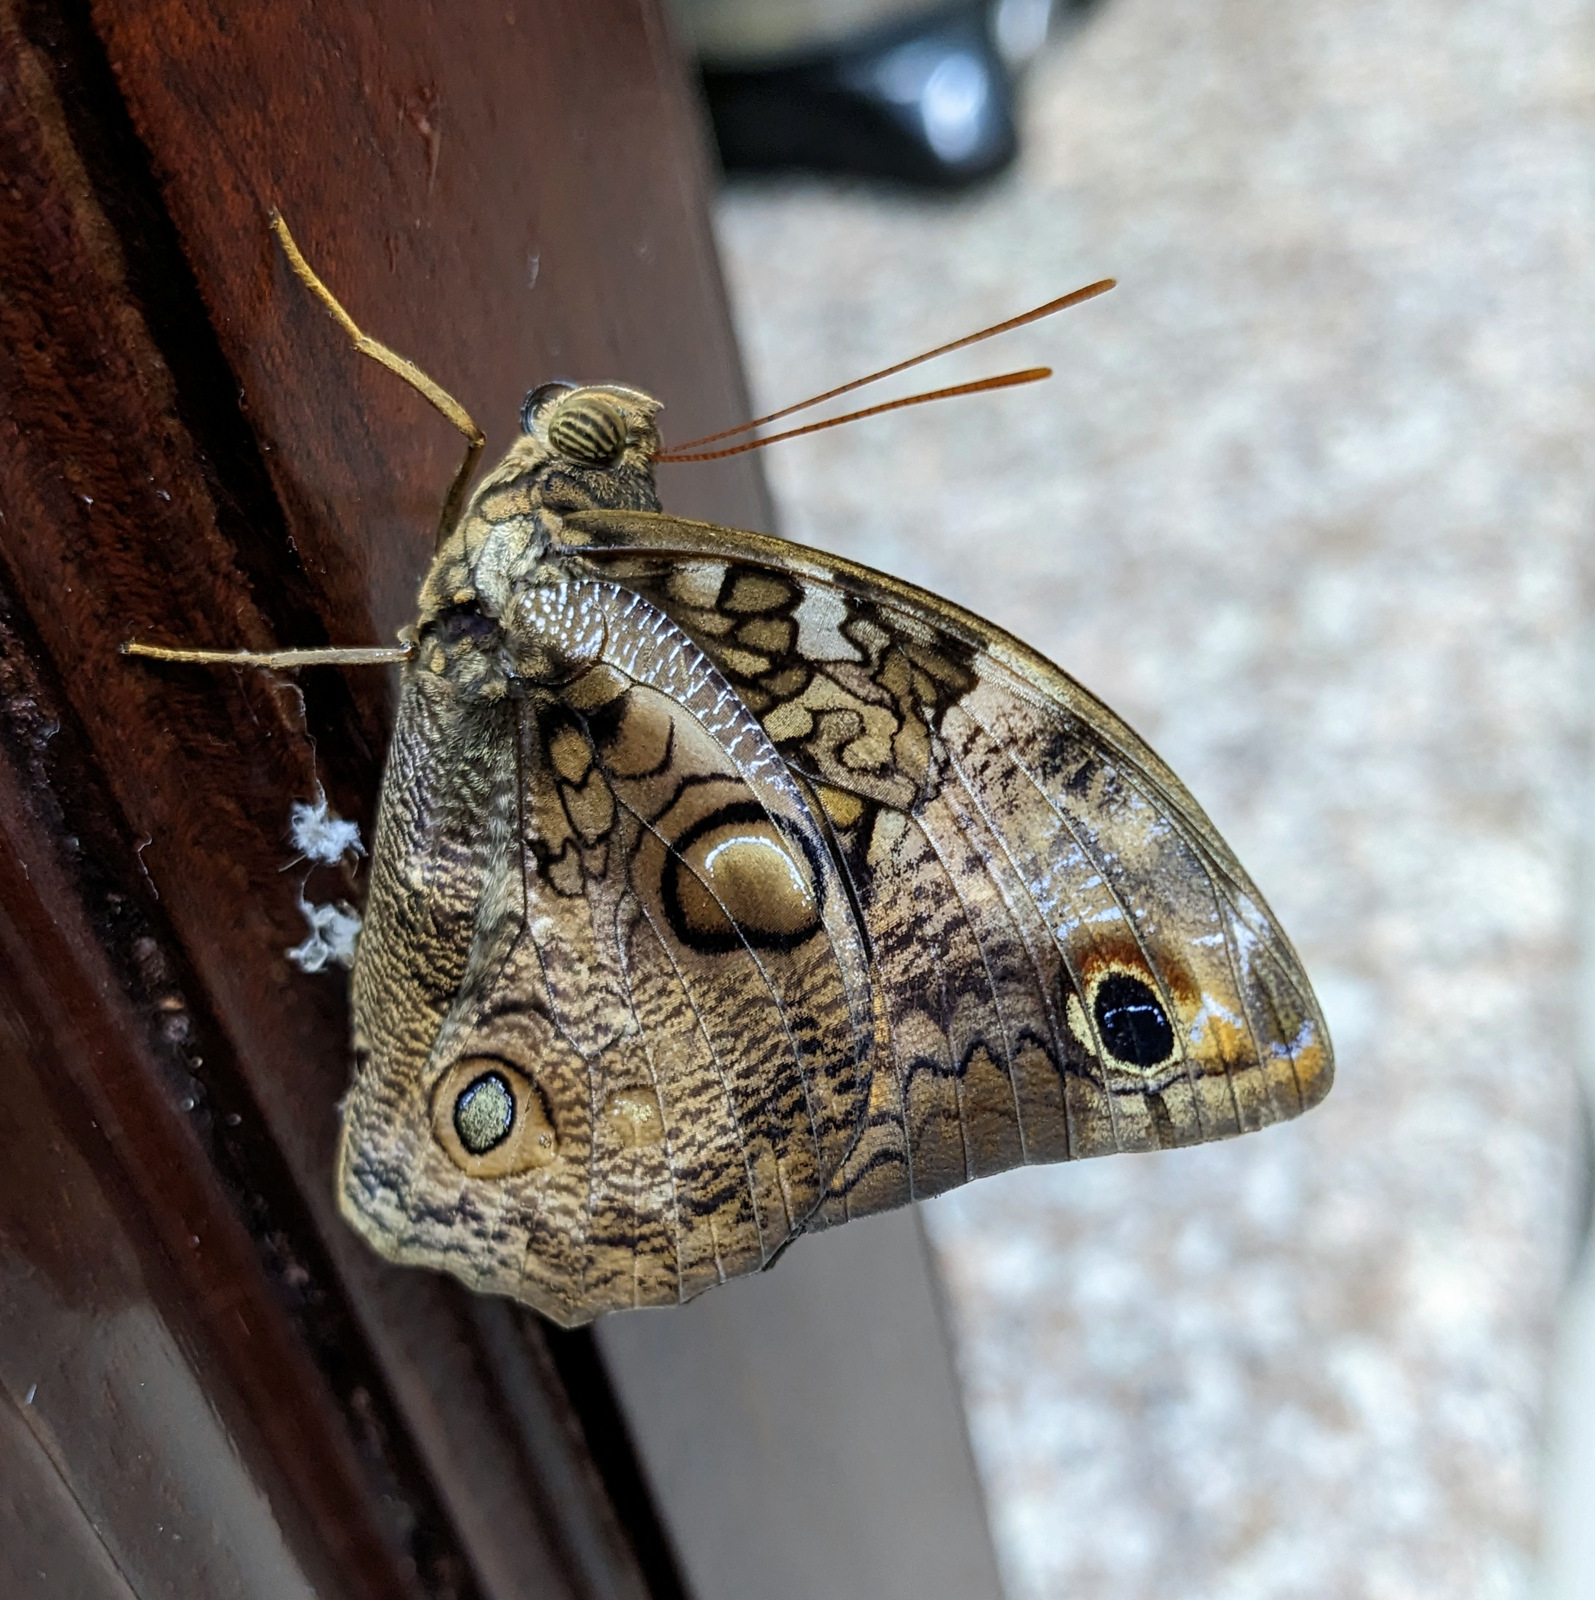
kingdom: Animalia
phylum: Arthropoda
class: Insecta
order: Lepidoptera
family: Nymphalidae
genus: Opsiphanes
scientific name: Opsiphanes cassiae
